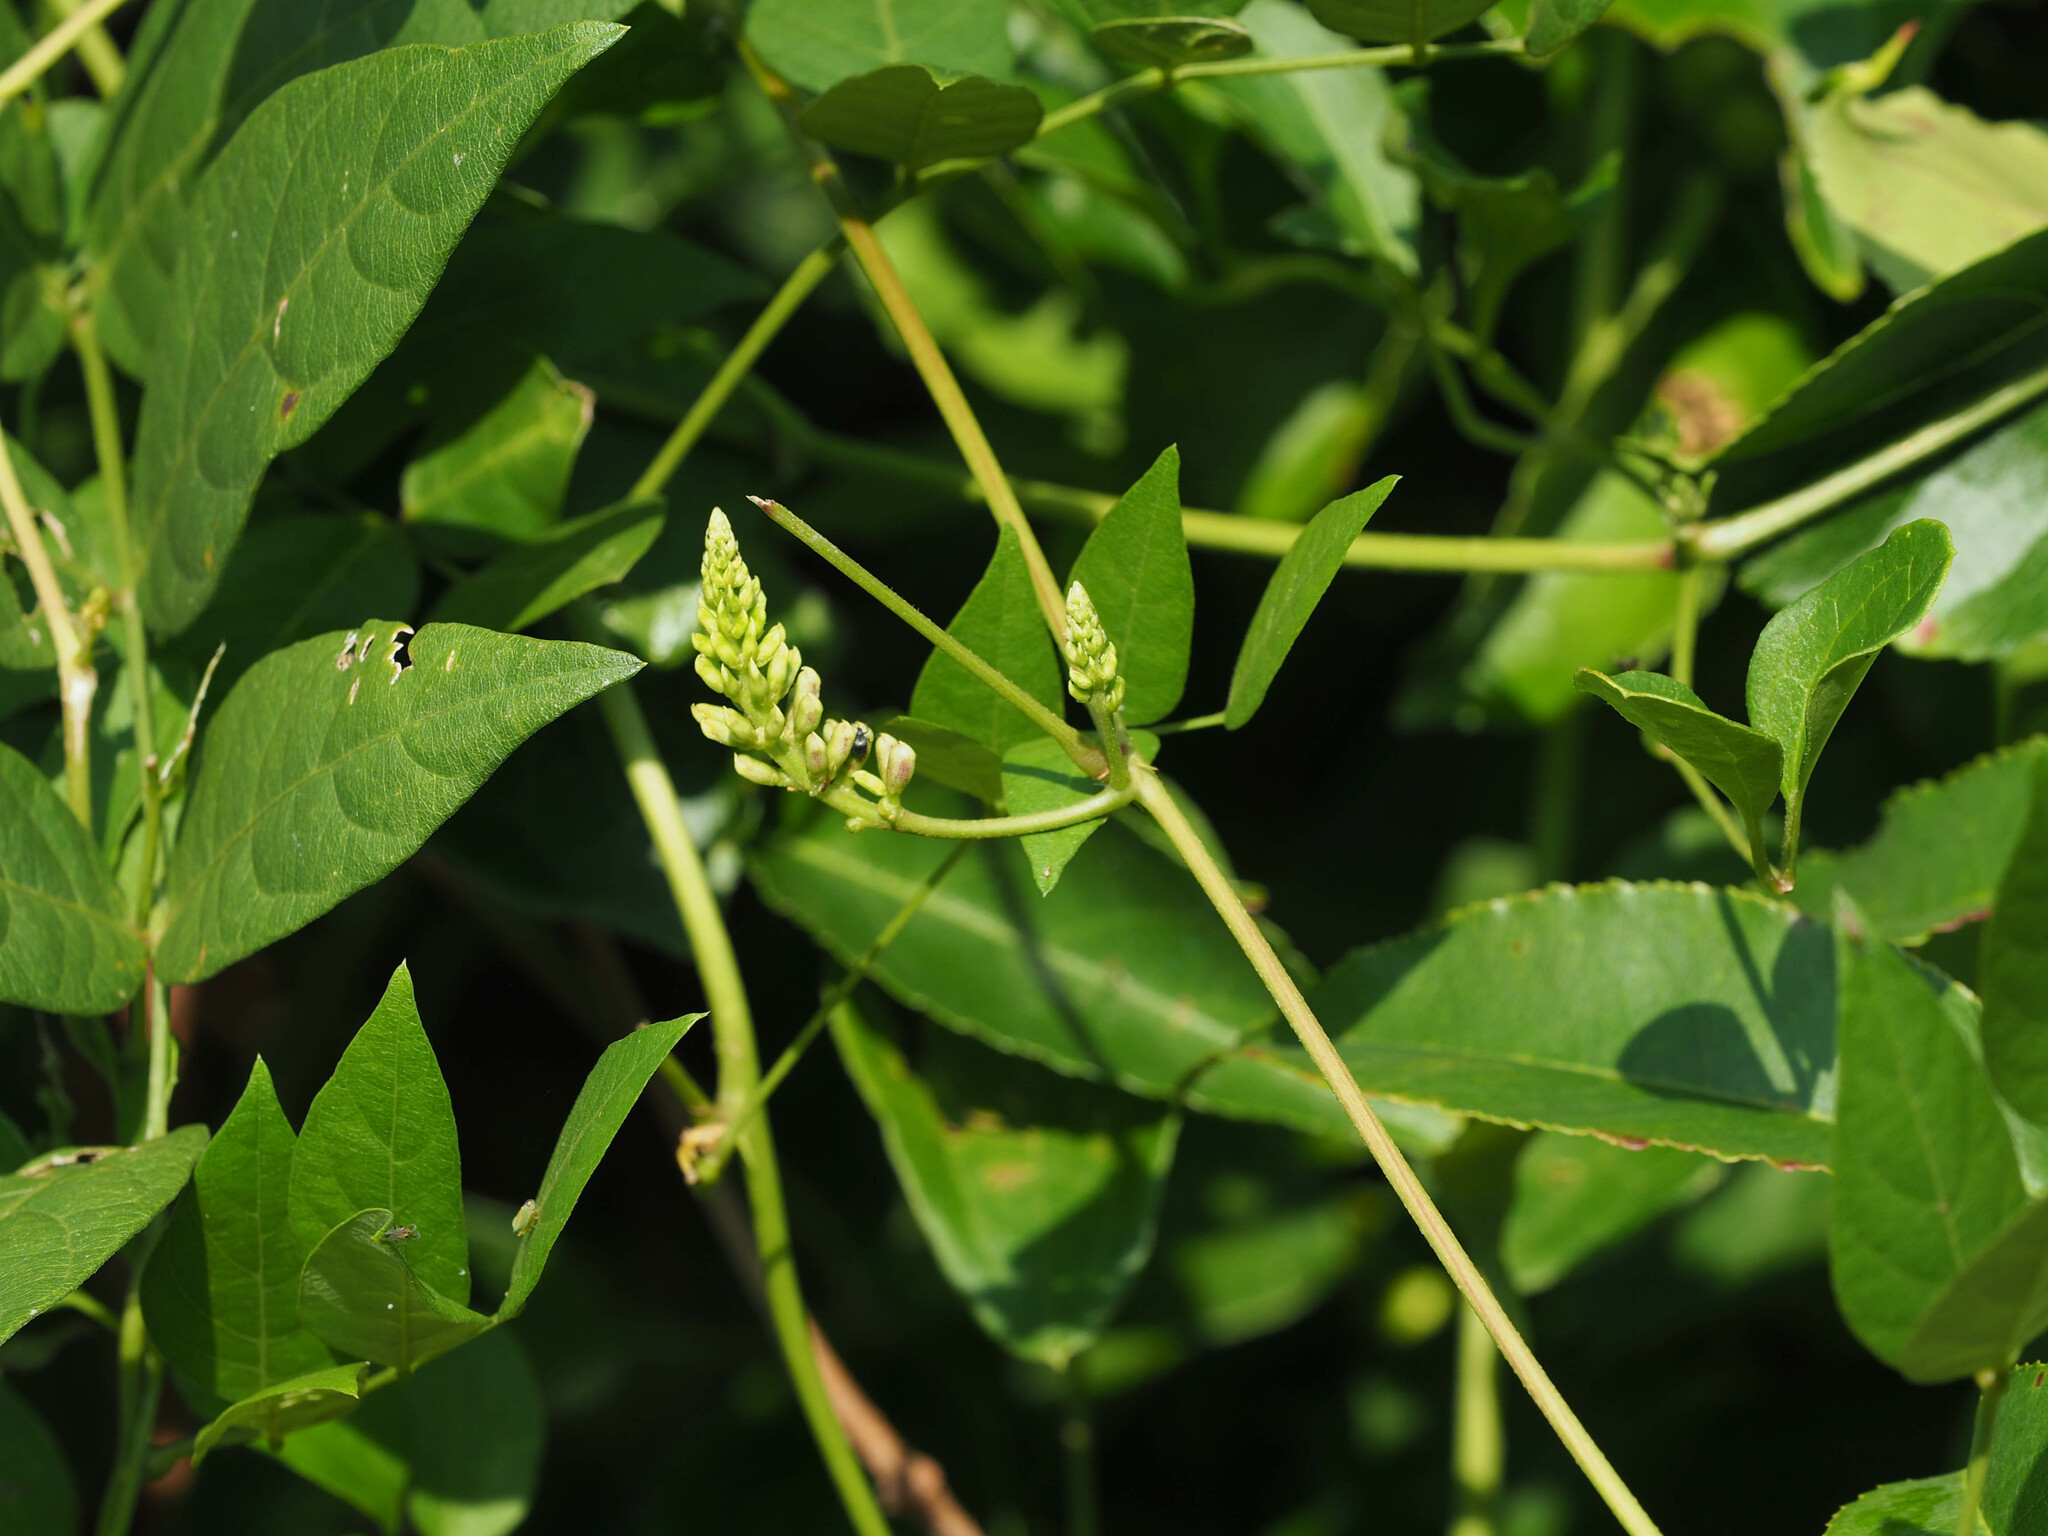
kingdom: Plantae
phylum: Tracheophyta
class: Magnoliopsida
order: Fabales
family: Fabaceae
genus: Apios
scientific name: Apios americana
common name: American potato-bean
